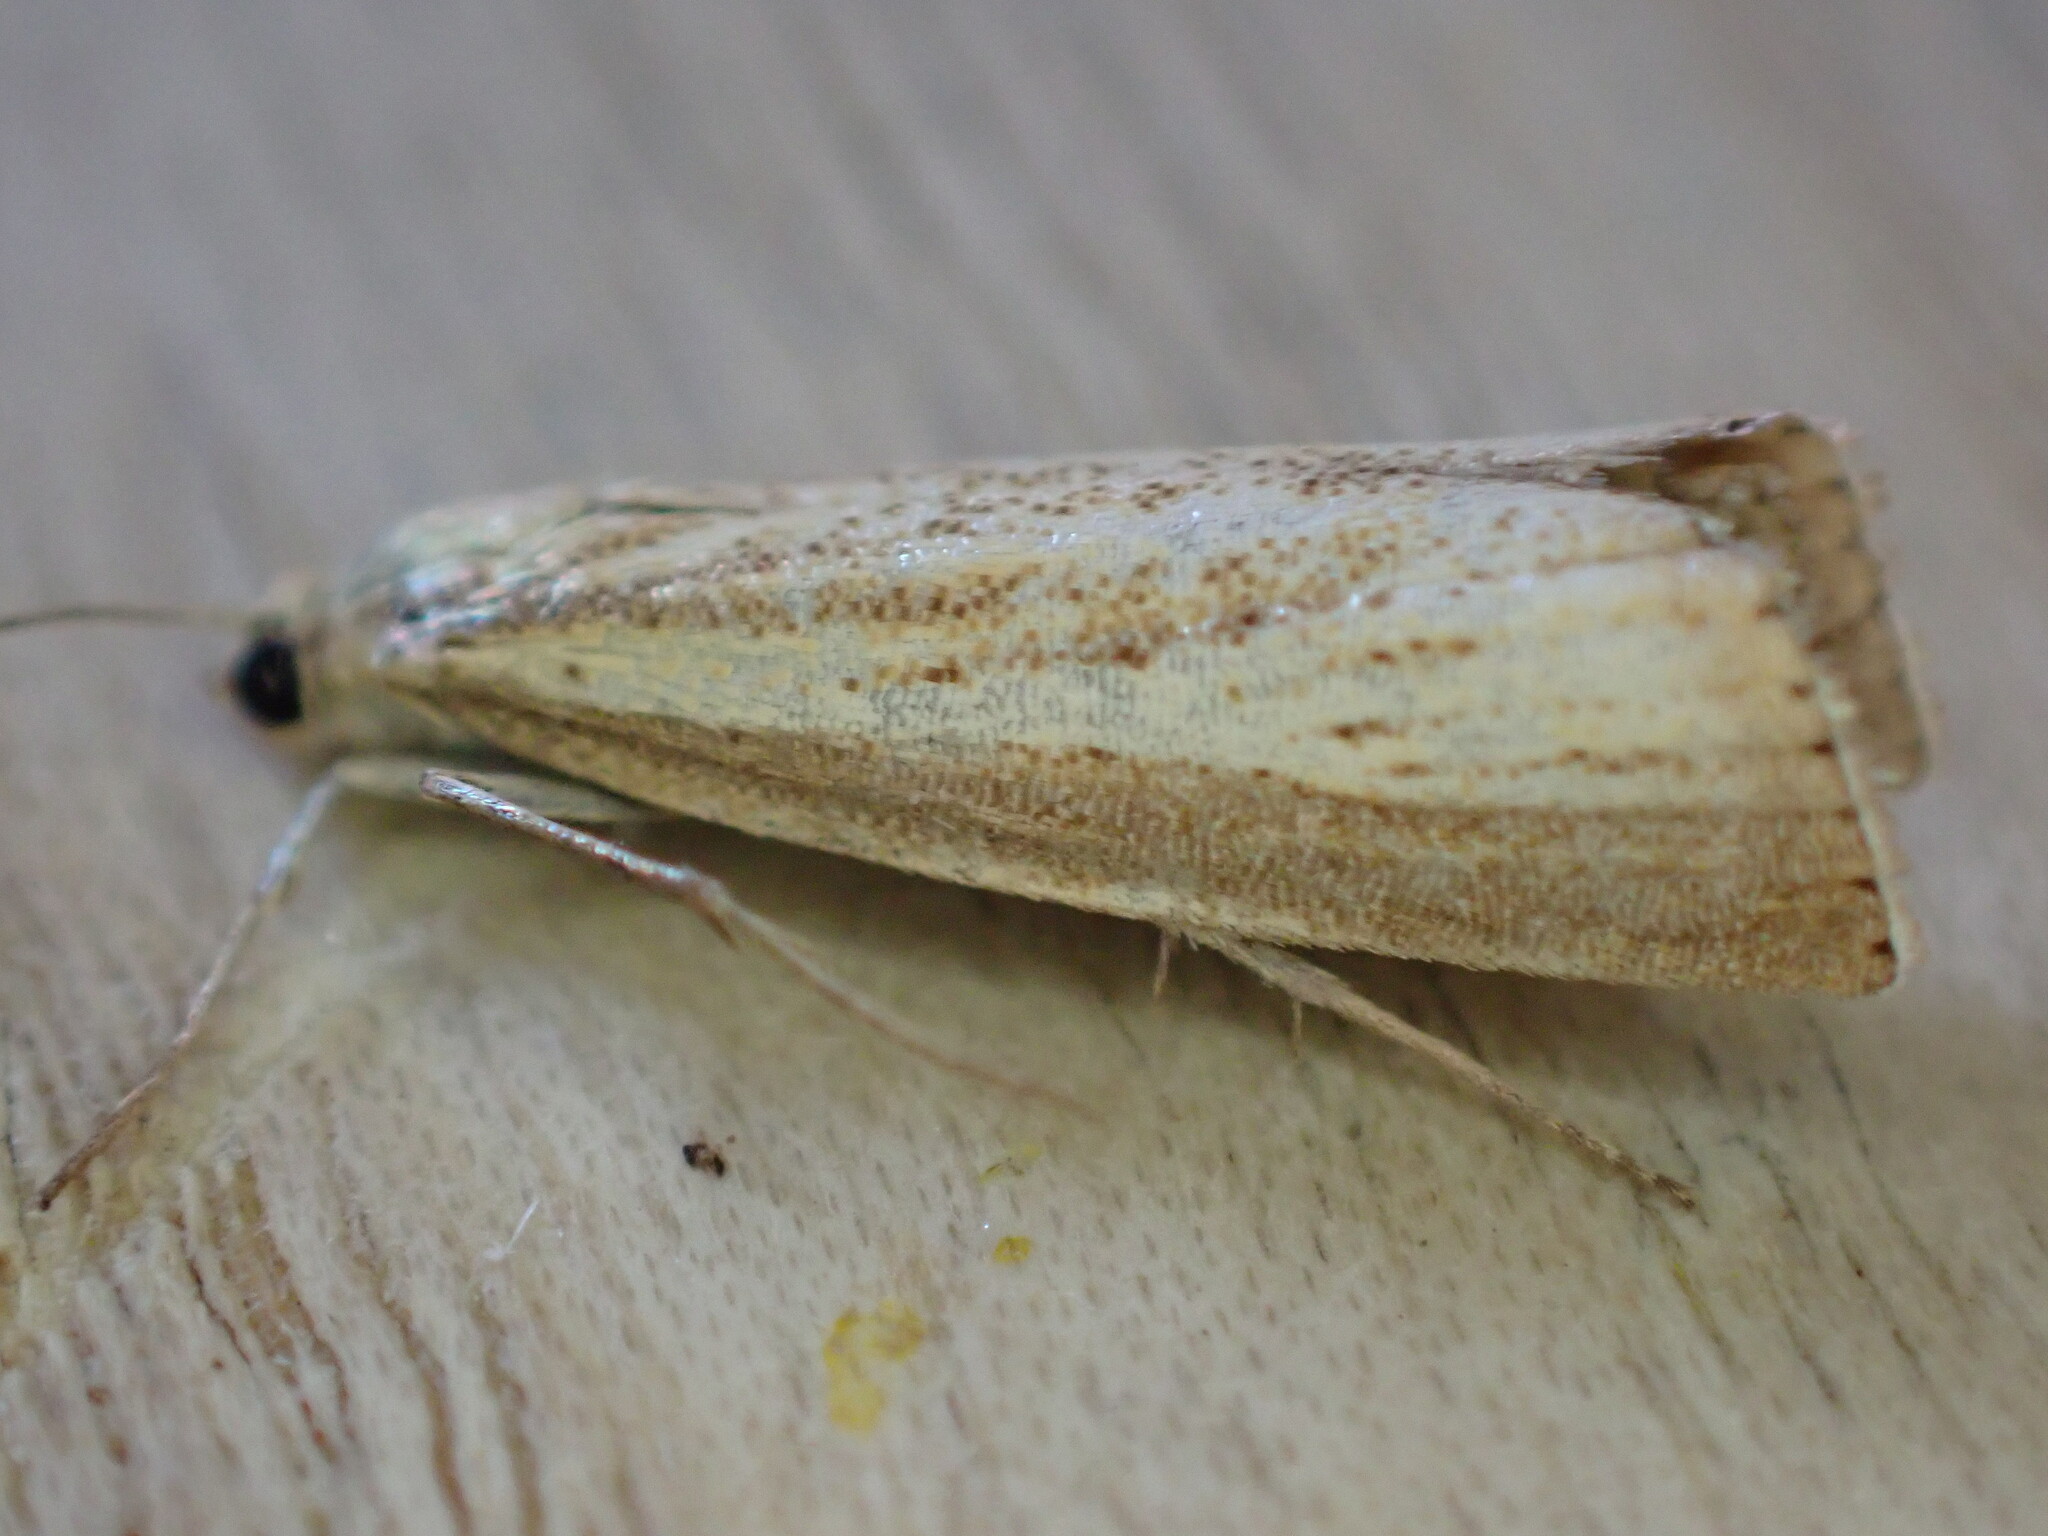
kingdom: Animalia
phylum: Arthropoda
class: Insecta
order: Lepidoptera
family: Crambidae
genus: Agriphila
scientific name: Agriphila straminella
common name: Straw grass-veneer
